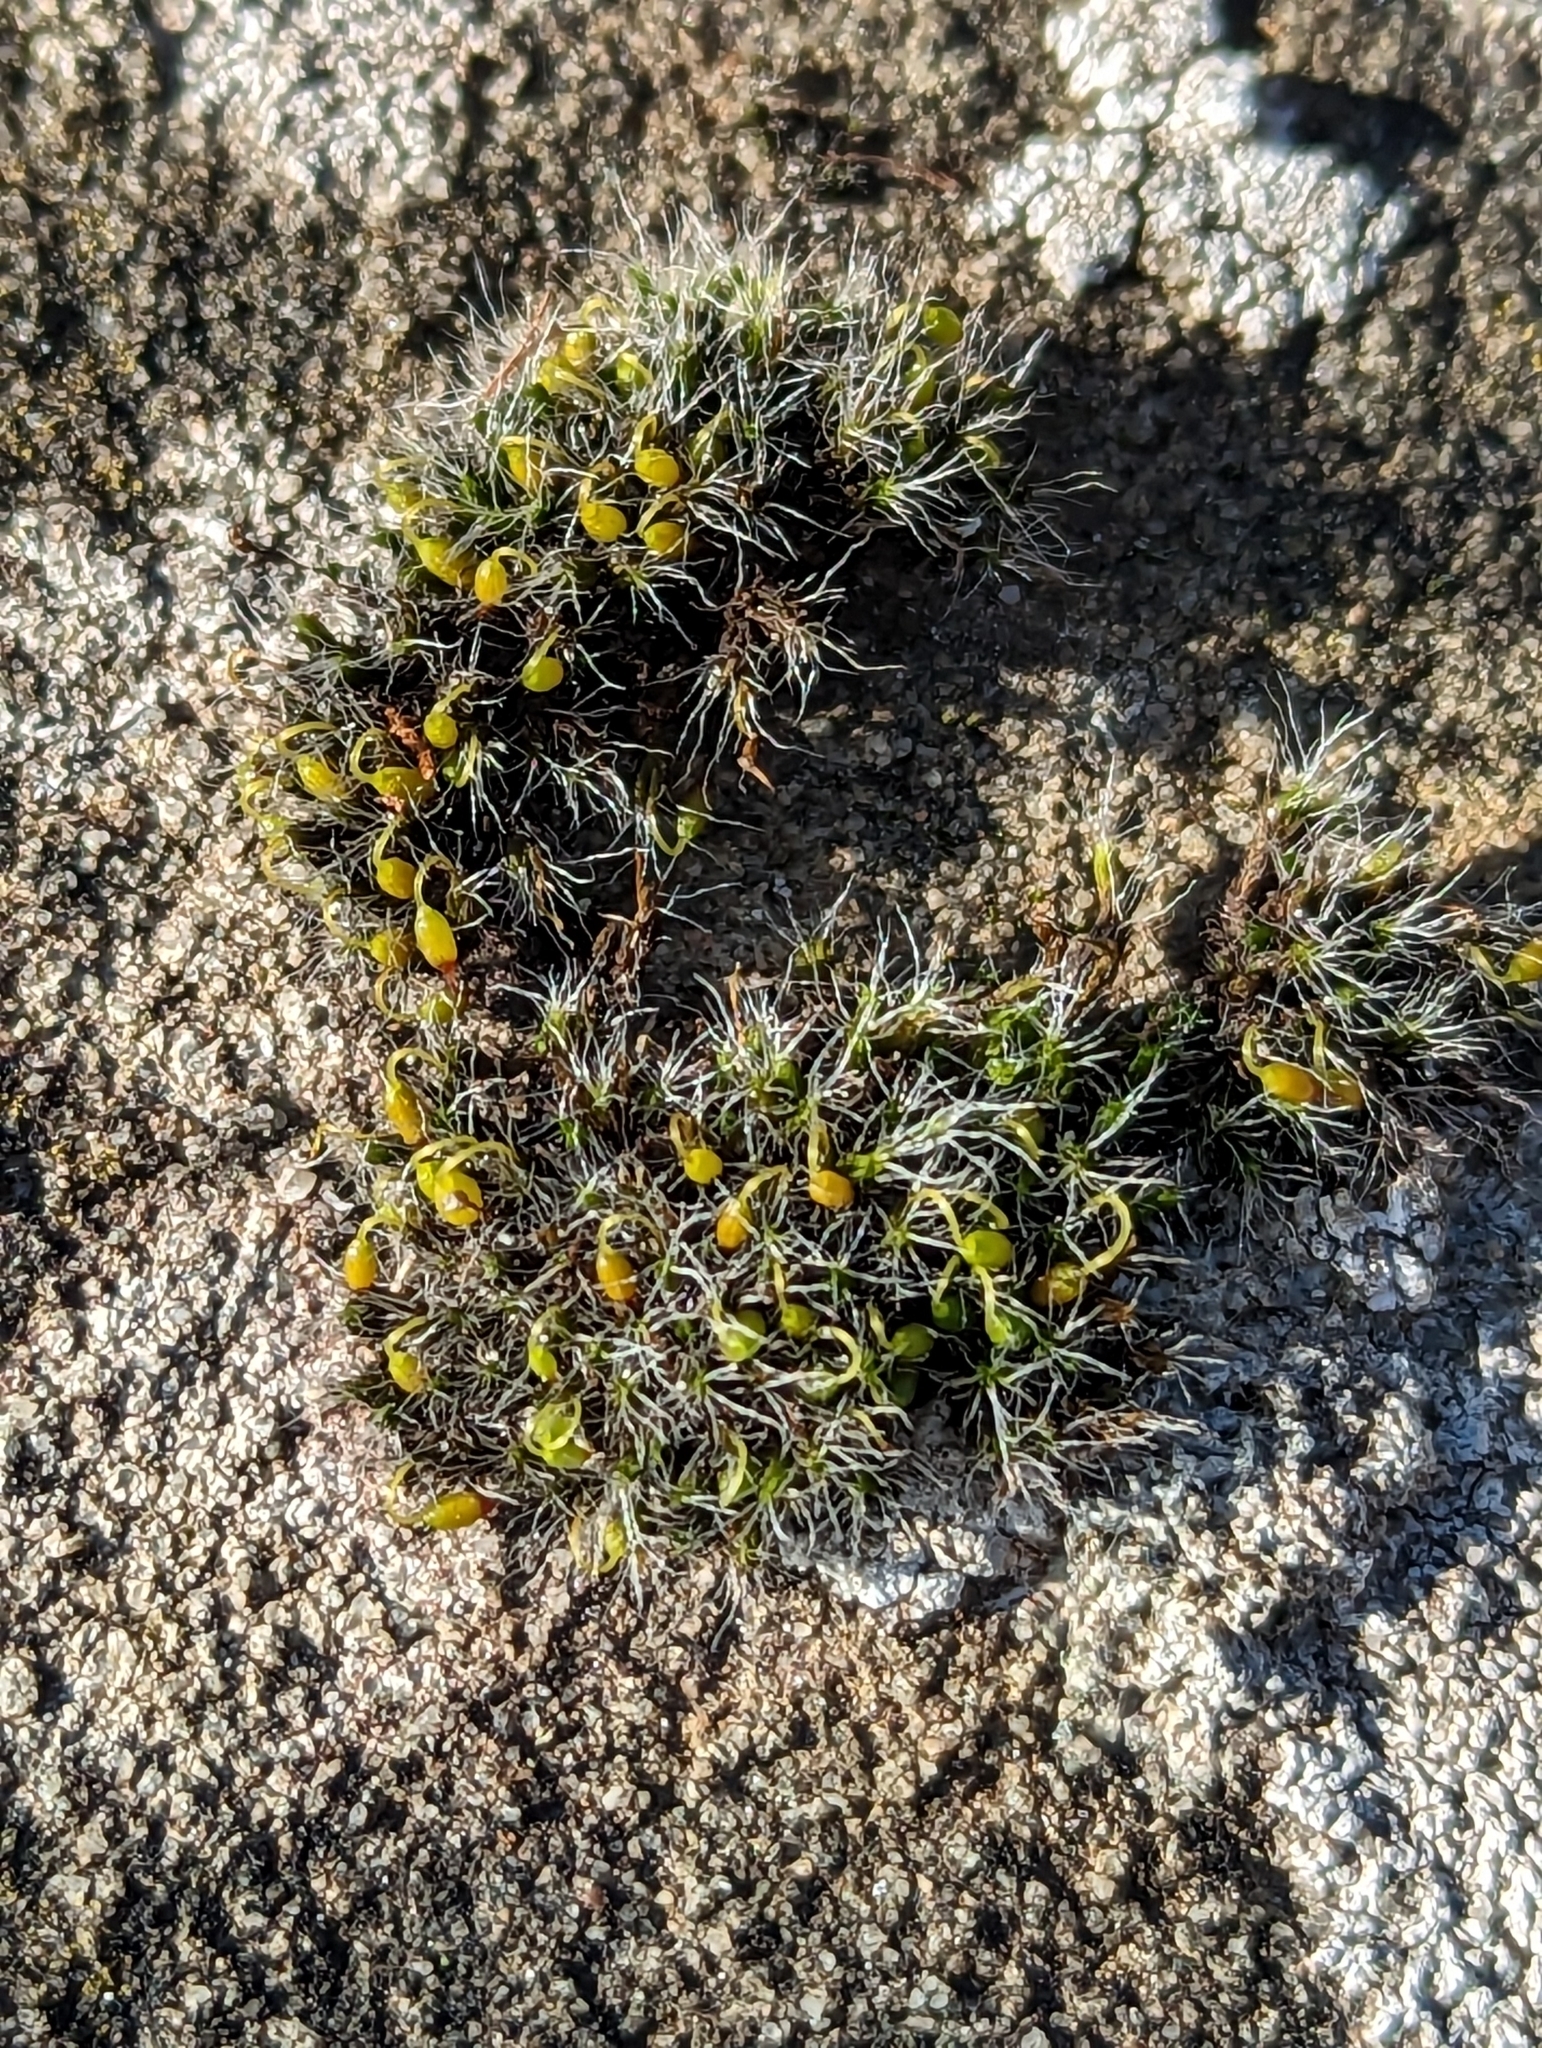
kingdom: Plantae
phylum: Bryophyta
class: Bryopsida
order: Grimmiales
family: Grimmiaceae
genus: Grimmia
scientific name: Grimmia pulvinata
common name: Grey-cushioned grimmia
